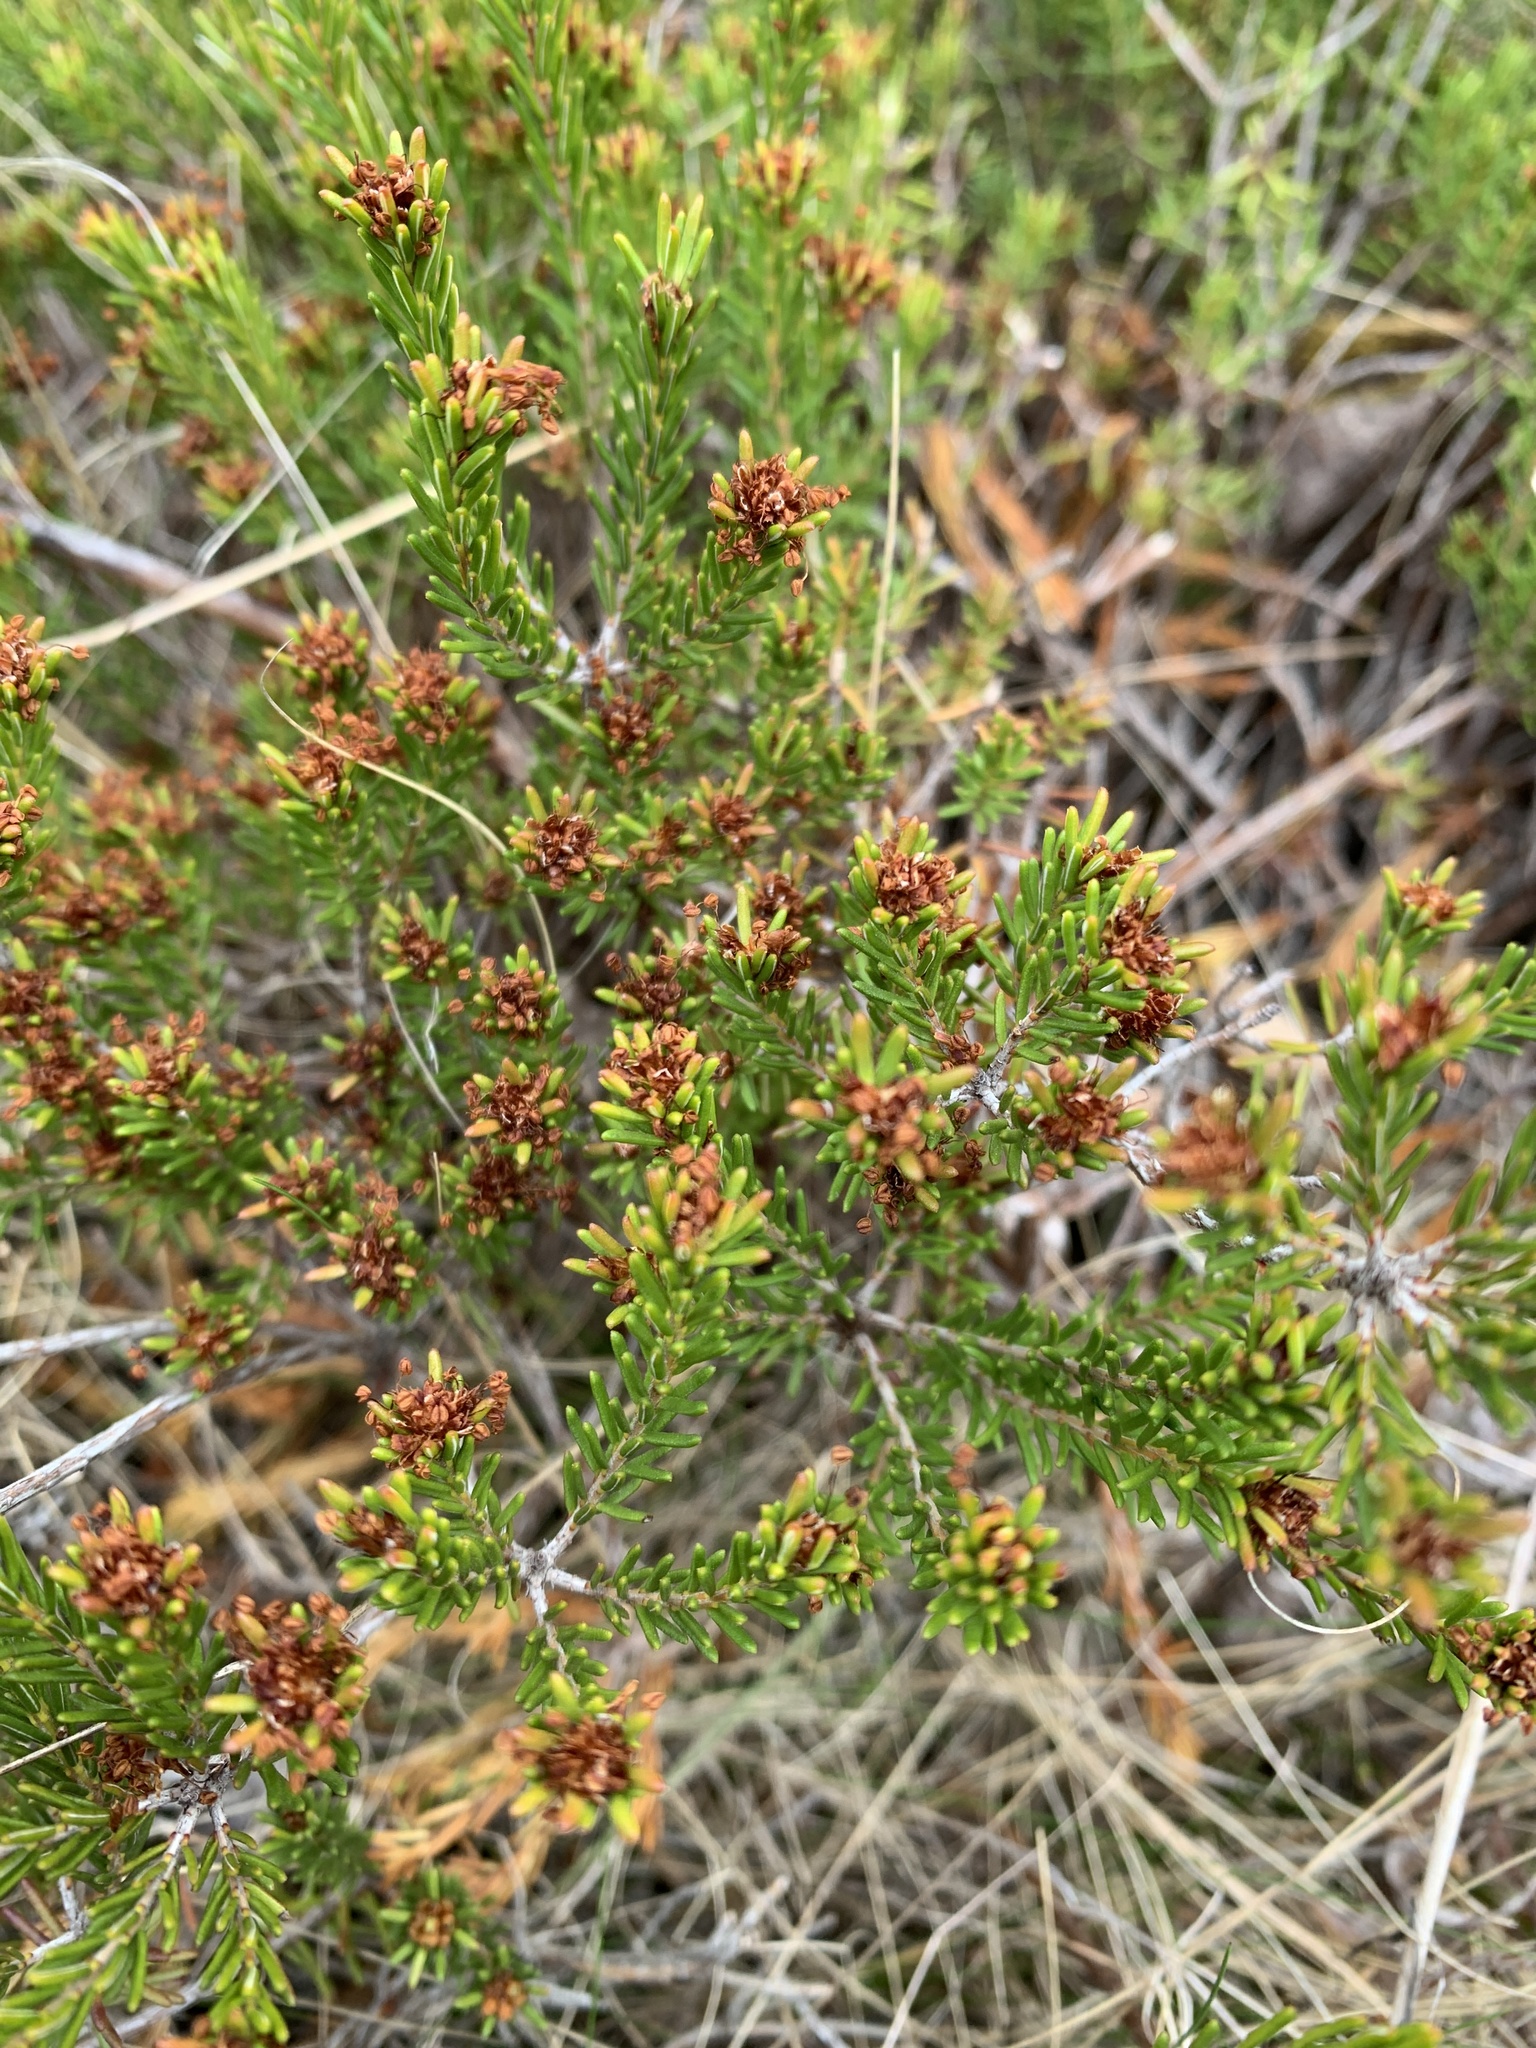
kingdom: Plantae
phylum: Tracheophyta
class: Magnoliopsida
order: Ericales
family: Ericaceae
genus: Corema
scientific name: Corema conradii
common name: Broom-crowberry
